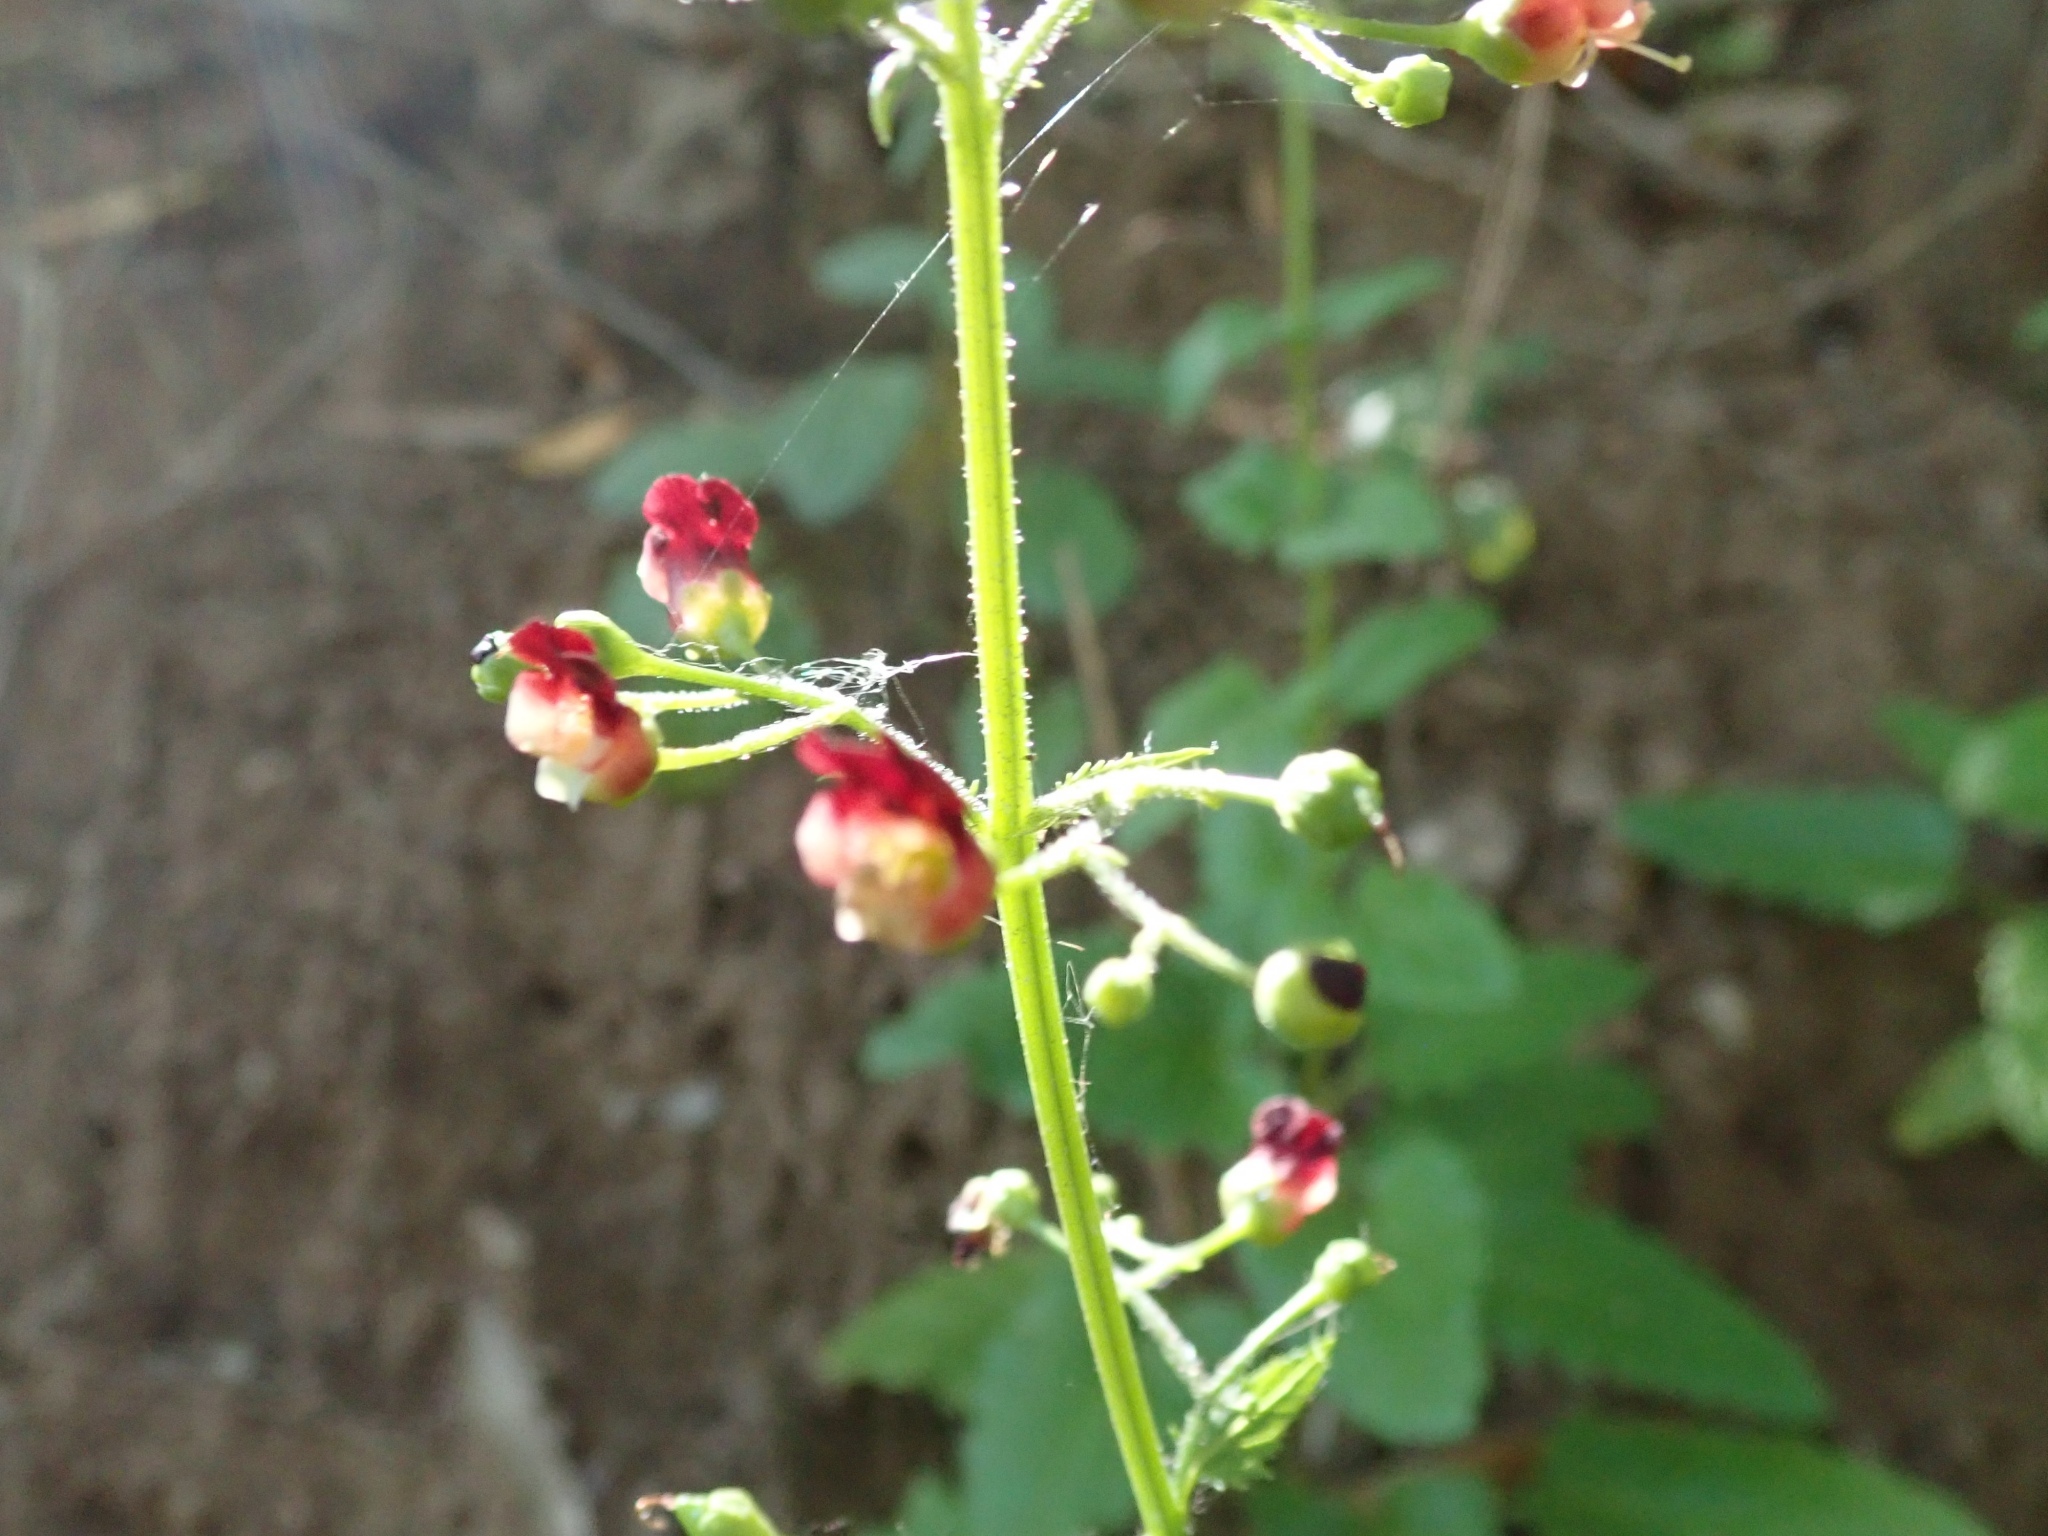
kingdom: Plantae
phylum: Tracheophyta
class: Magnoliopsida
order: Lamiales
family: Scrophulariaceae
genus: Scrophularia
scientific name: Scrophularia californica
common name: California figwort
